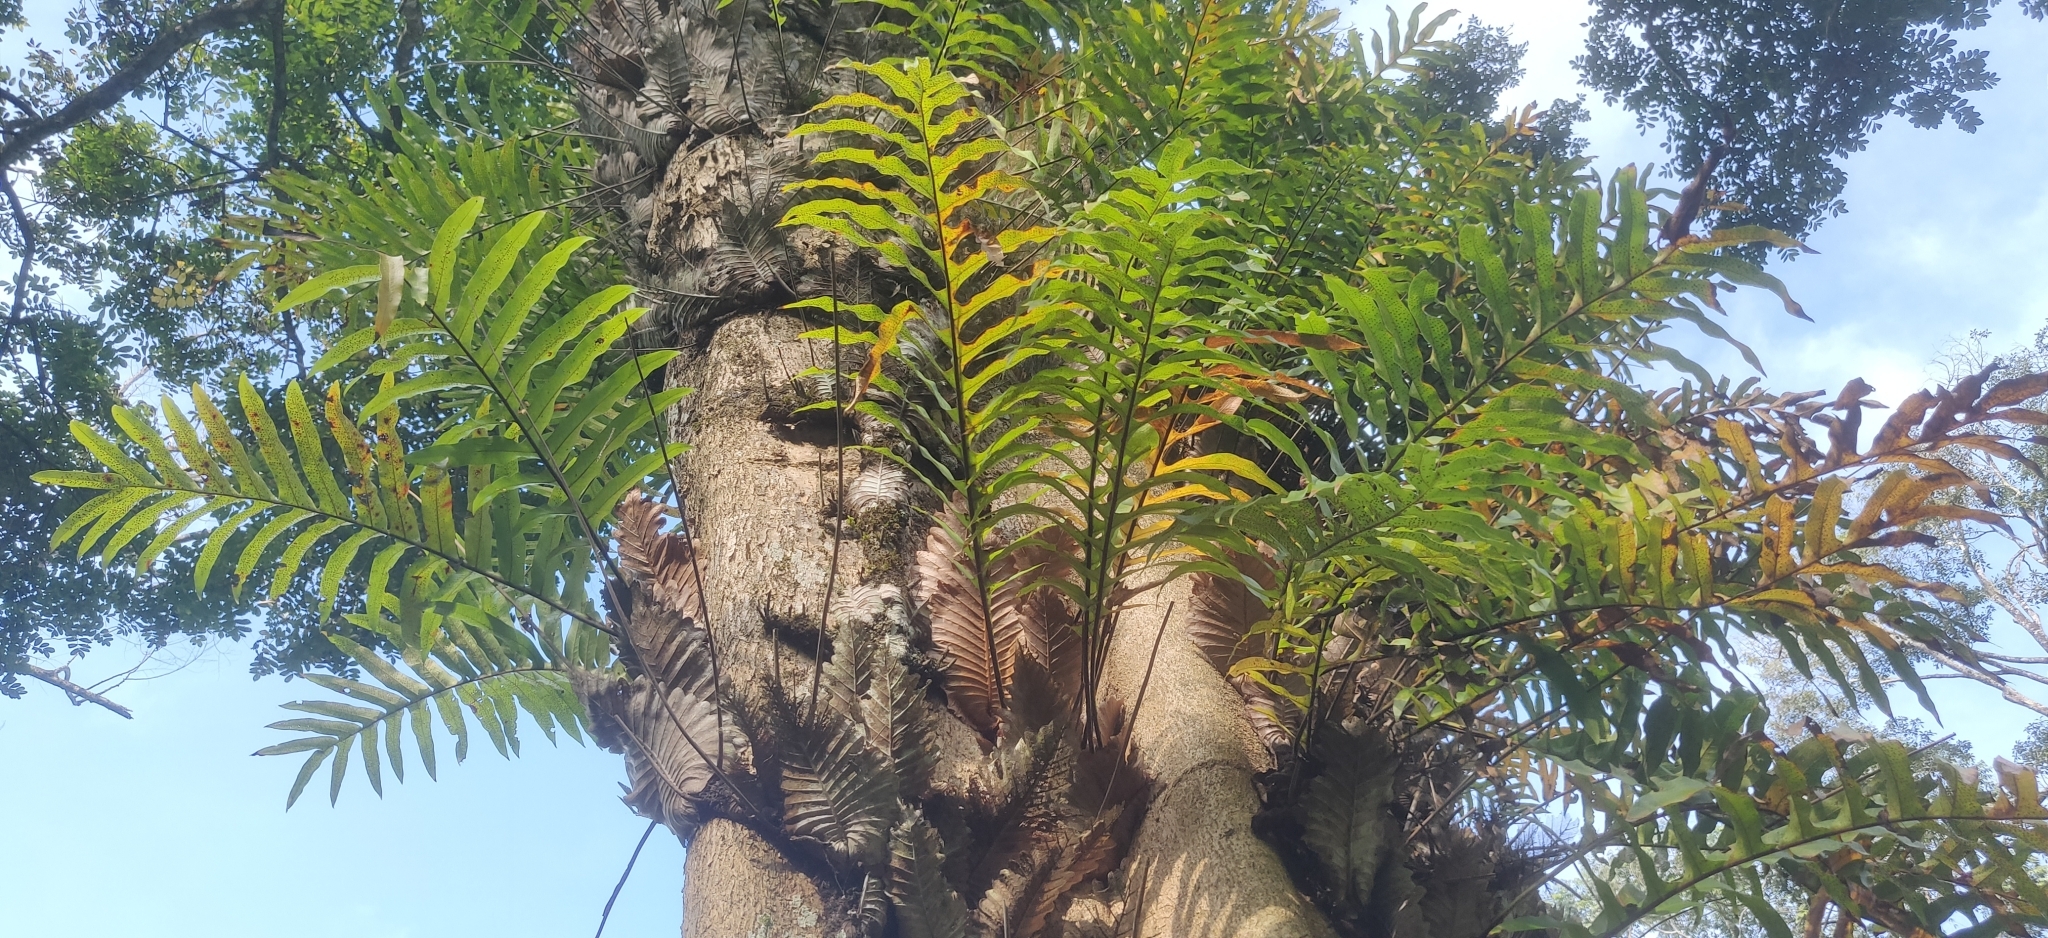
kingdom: Plantae
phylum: Tracheophyta
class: Polypodiopsida
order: Polypodiales
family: Polypodiaceae
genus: Drynaria
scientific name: Drynaria quercifolia
